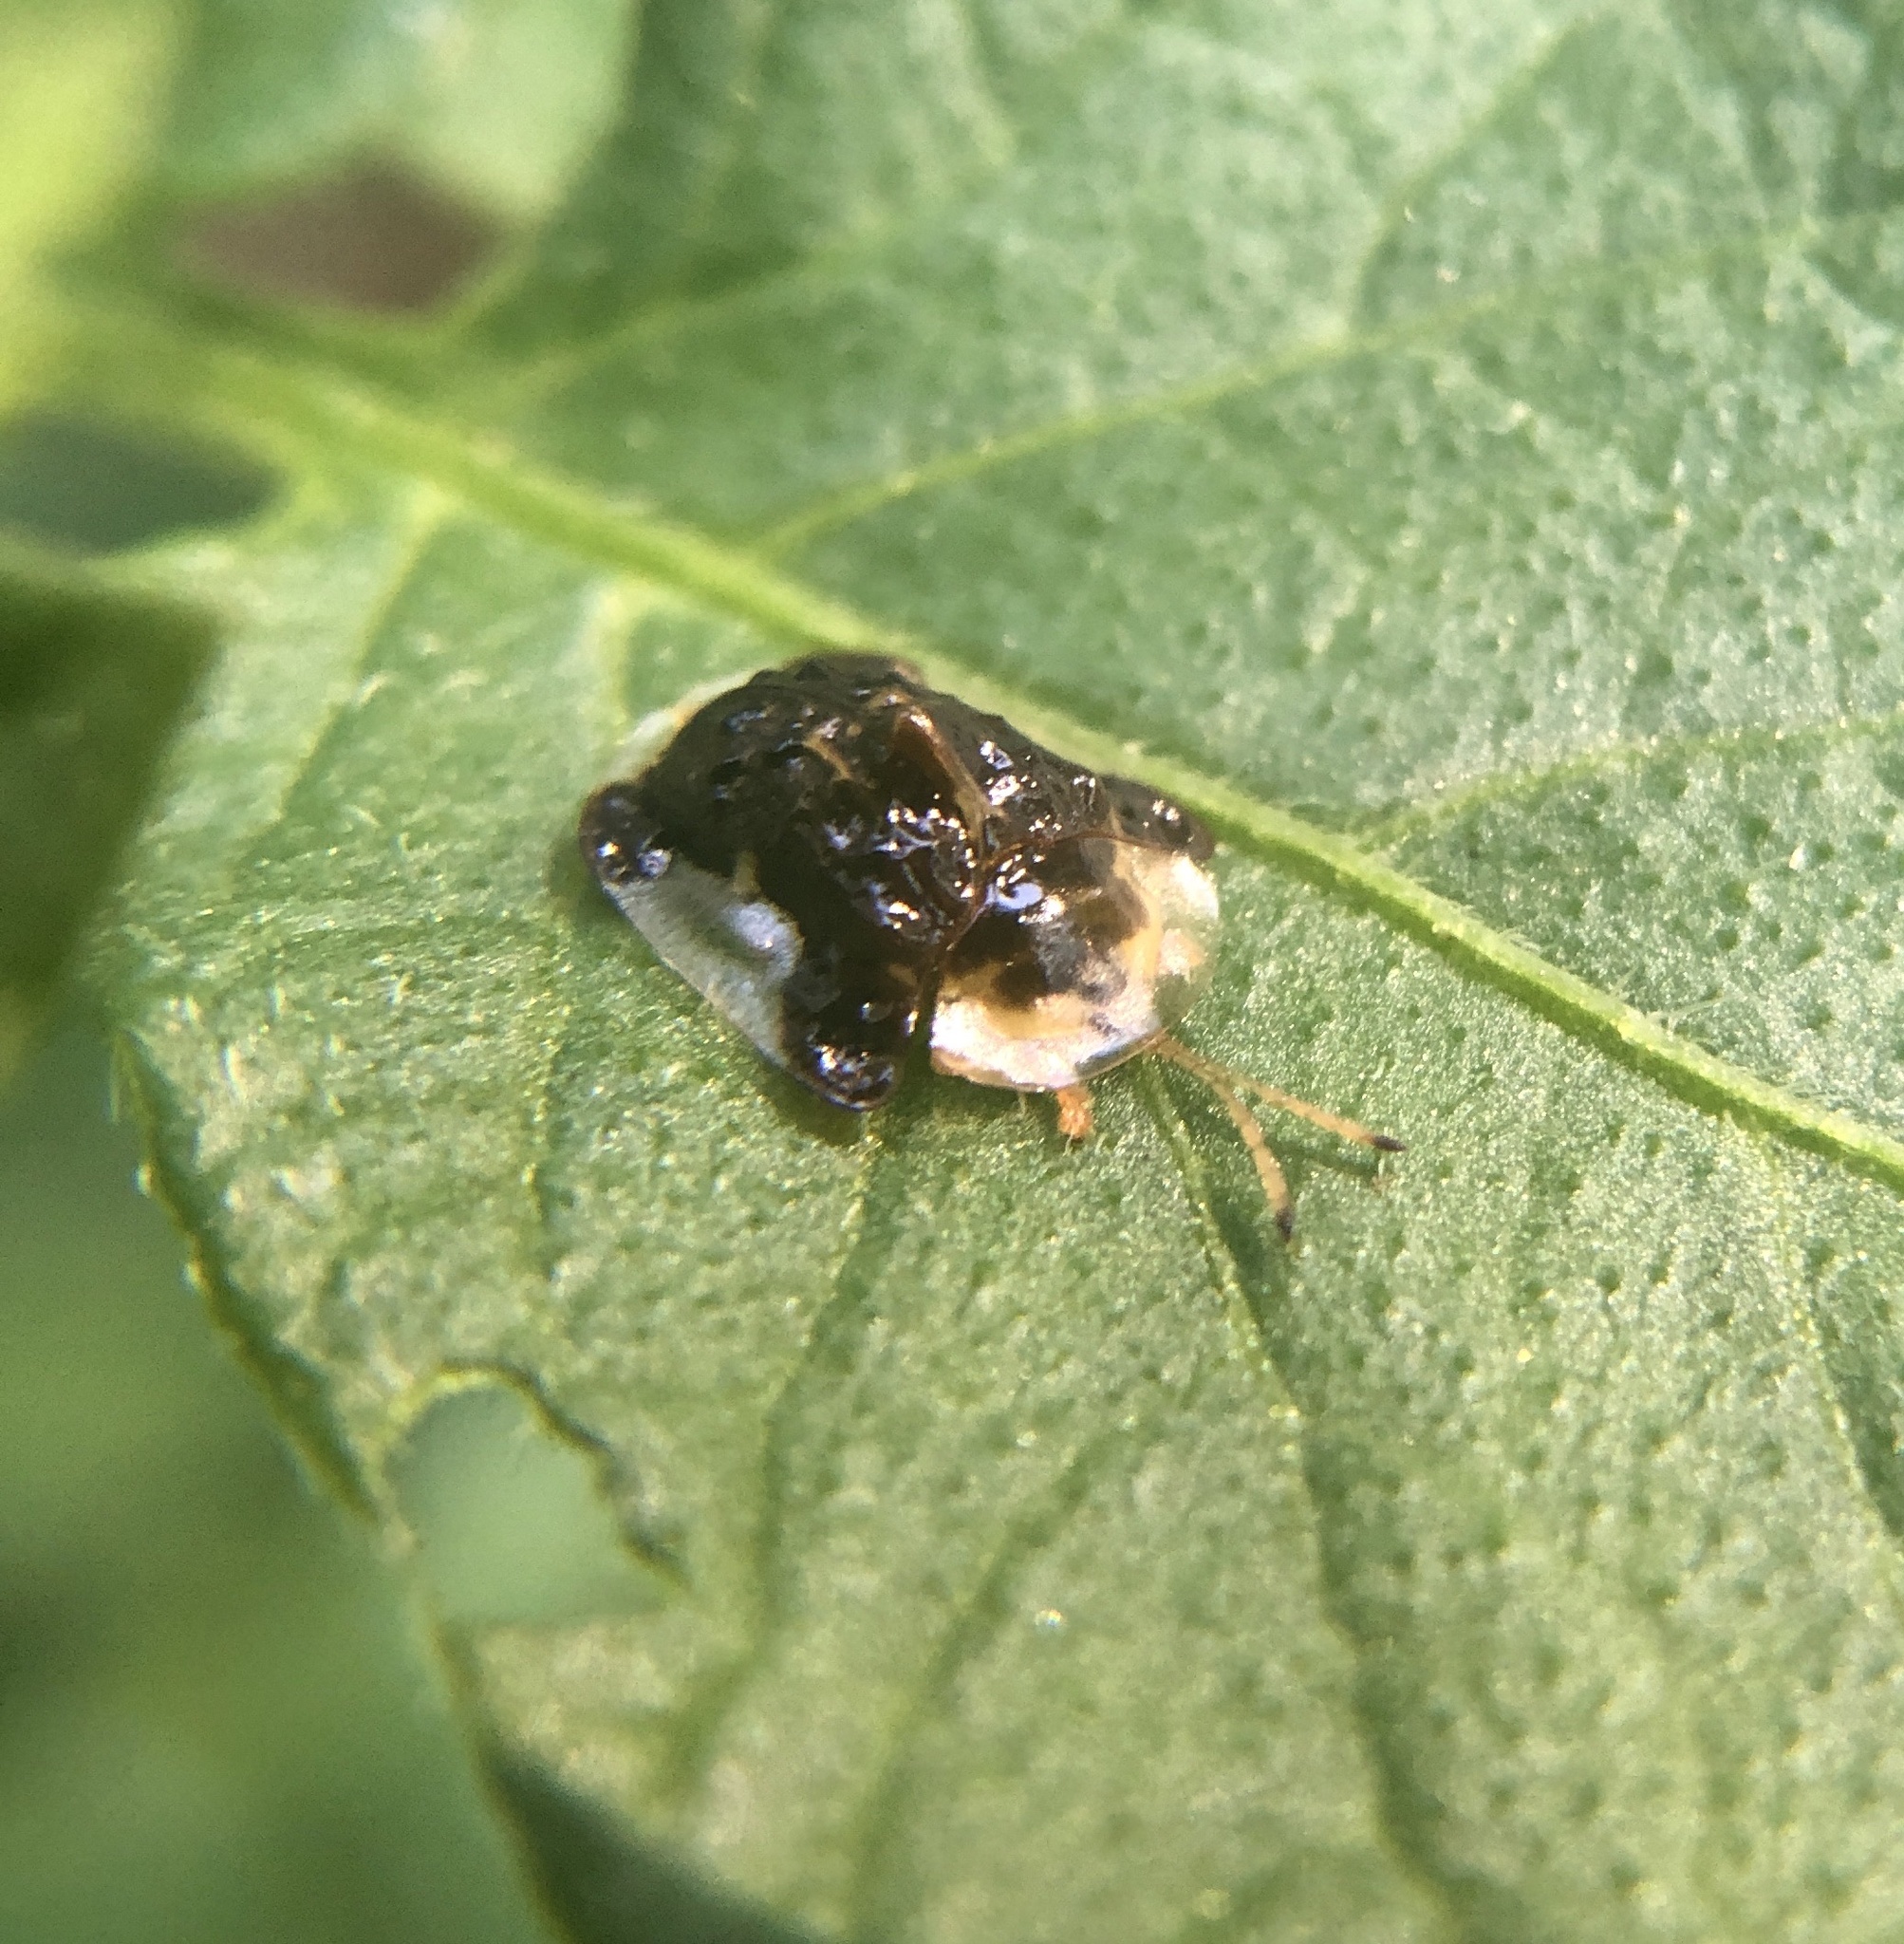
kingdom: Animalia
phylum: Arthropoda
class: Insecta
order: Coleoptera
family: Chrysomelidae
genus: Helocassis
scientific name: Helocassis clavata
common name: Clavate tortoise beetle
